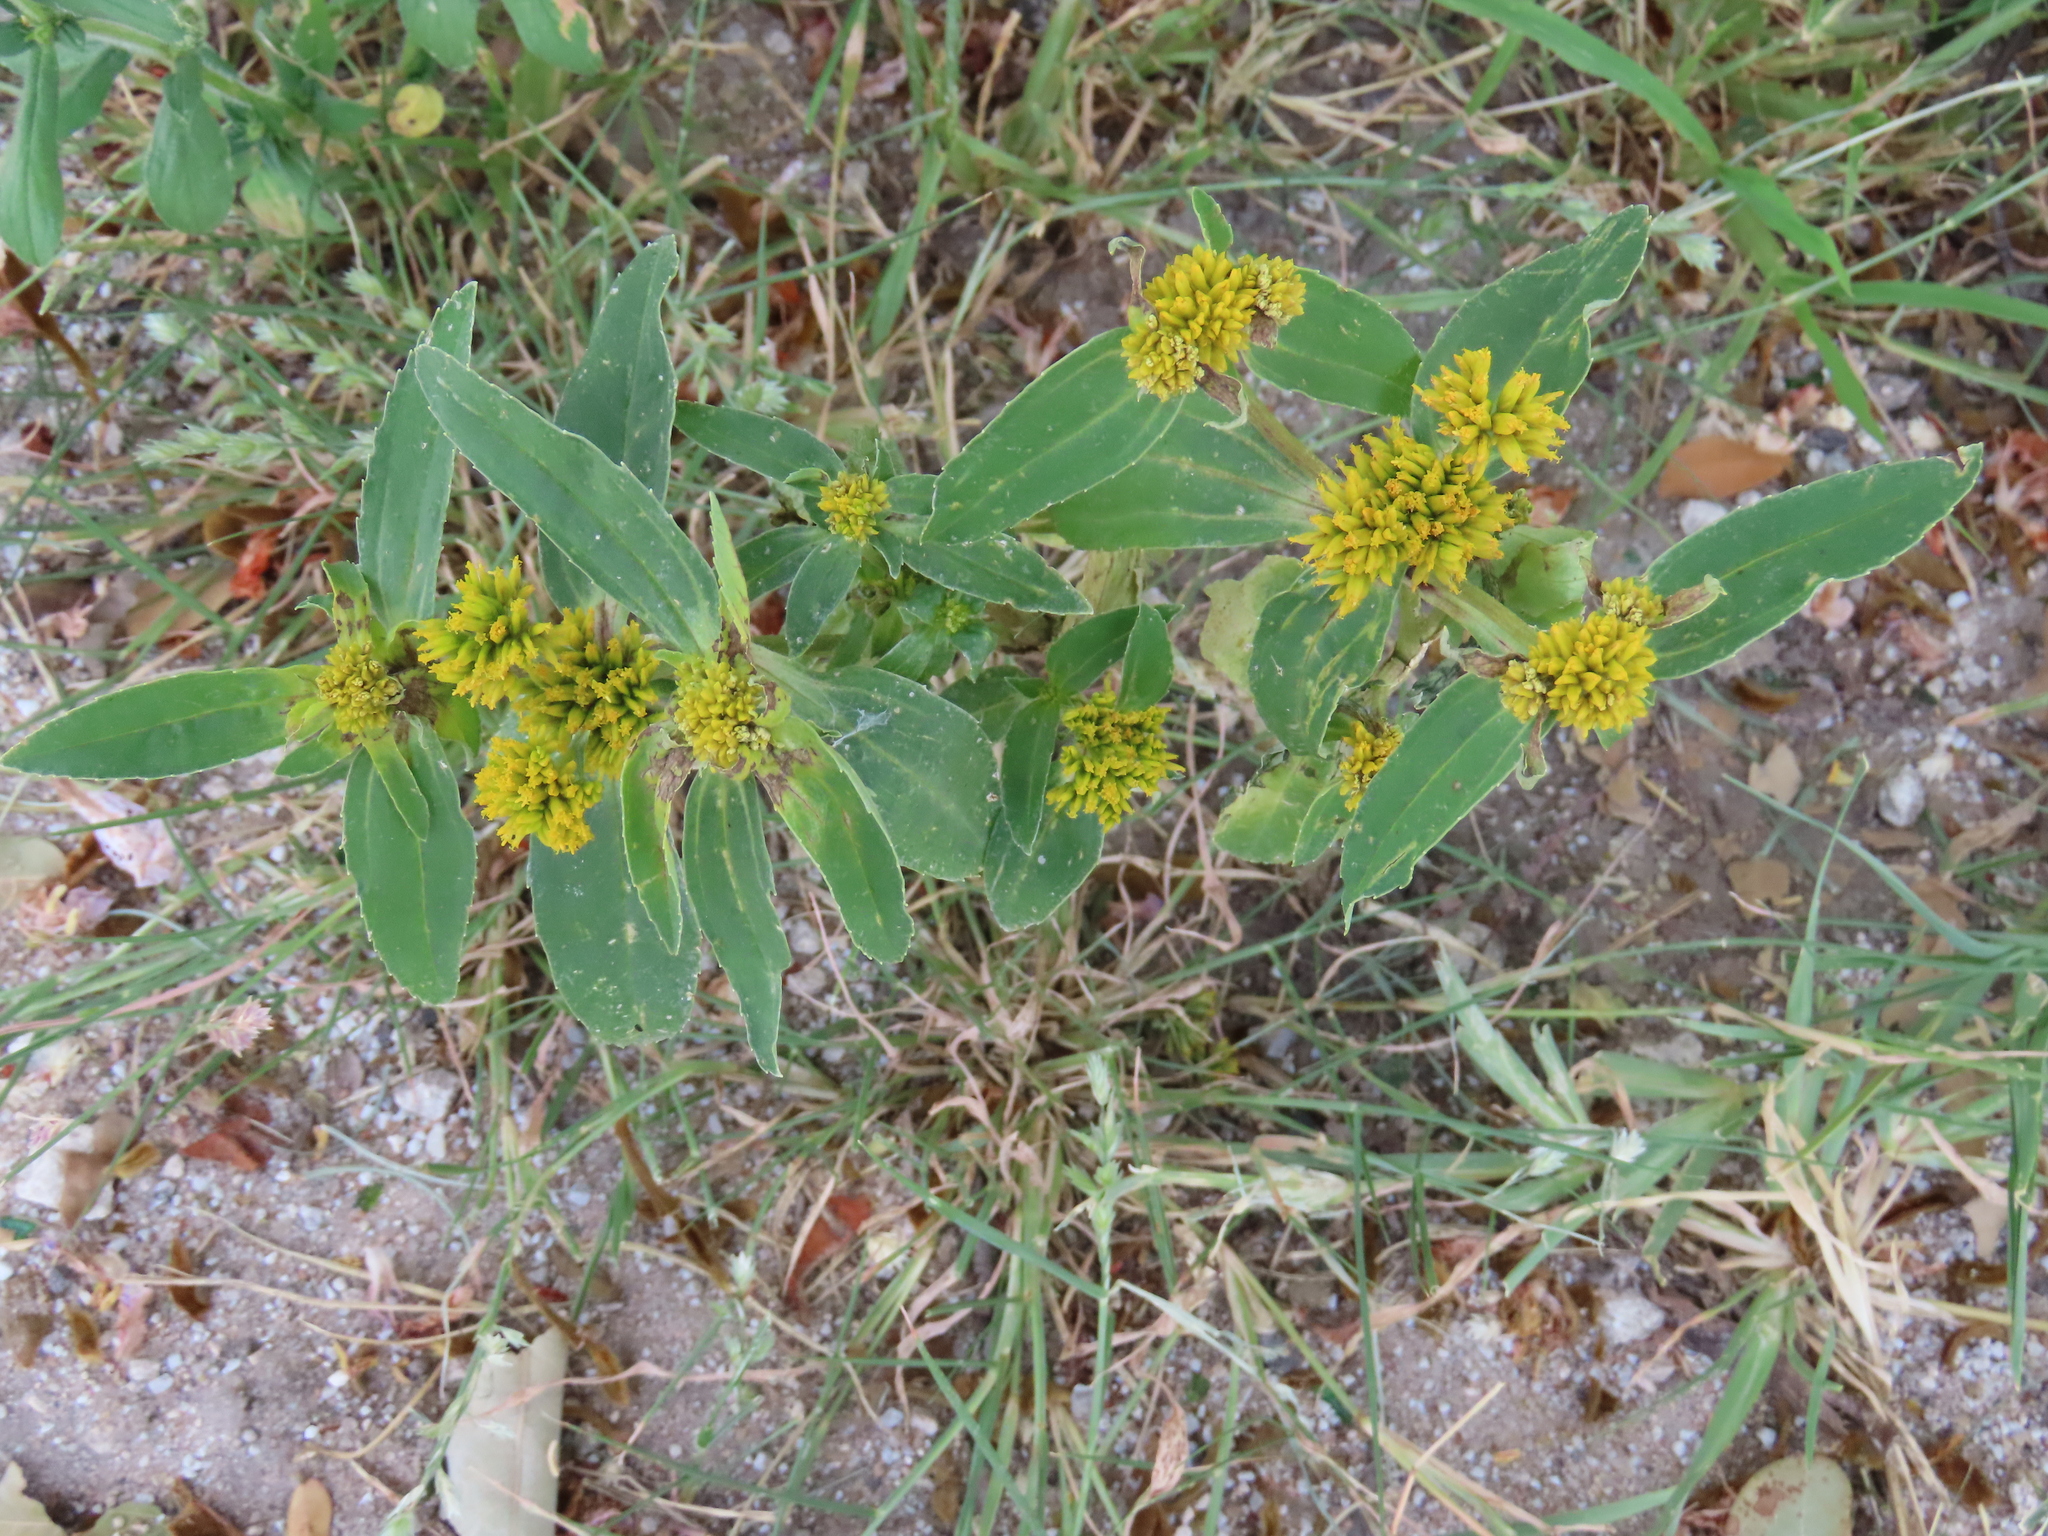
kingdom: Plantae
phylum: Tracheophyta
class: Magnoliopsida
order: Asterales
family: Asteraceae
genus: Flaveria
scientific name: Flaveria bidentis
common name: Coastal plain yellowtops
